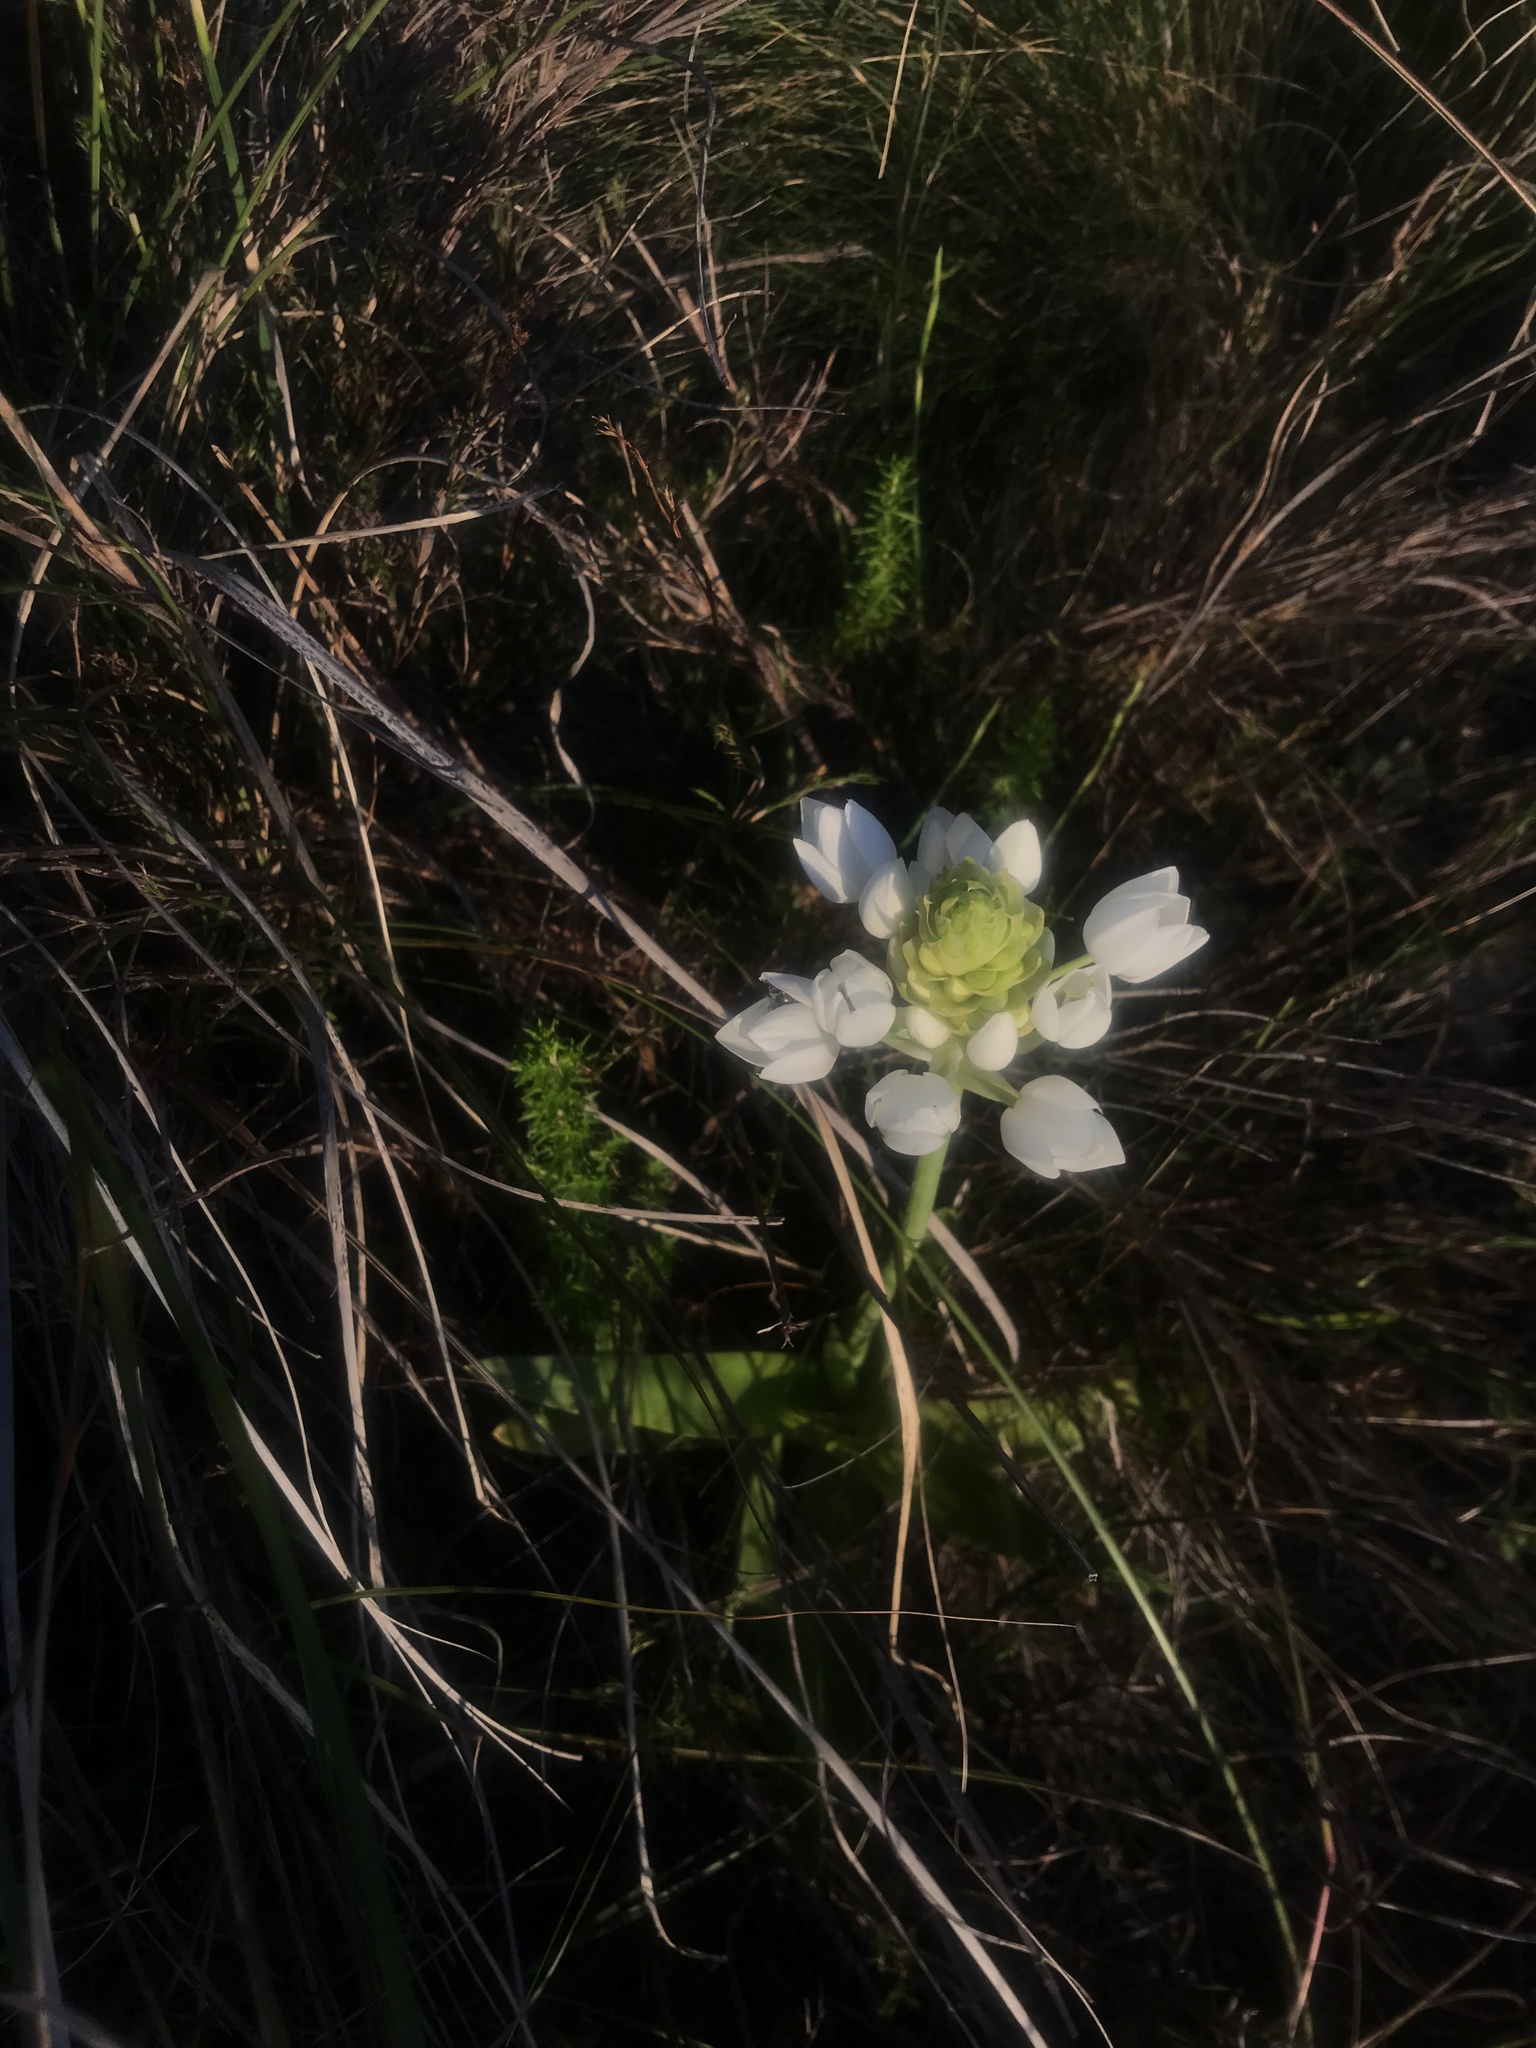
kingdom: Plantae
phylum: Tracheophyta
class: Liliopsida
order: Asparagales
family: Asparagaceae
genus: Ornithogalum
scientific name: Ornithogalum thyrsoides
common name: Chincherinchee
